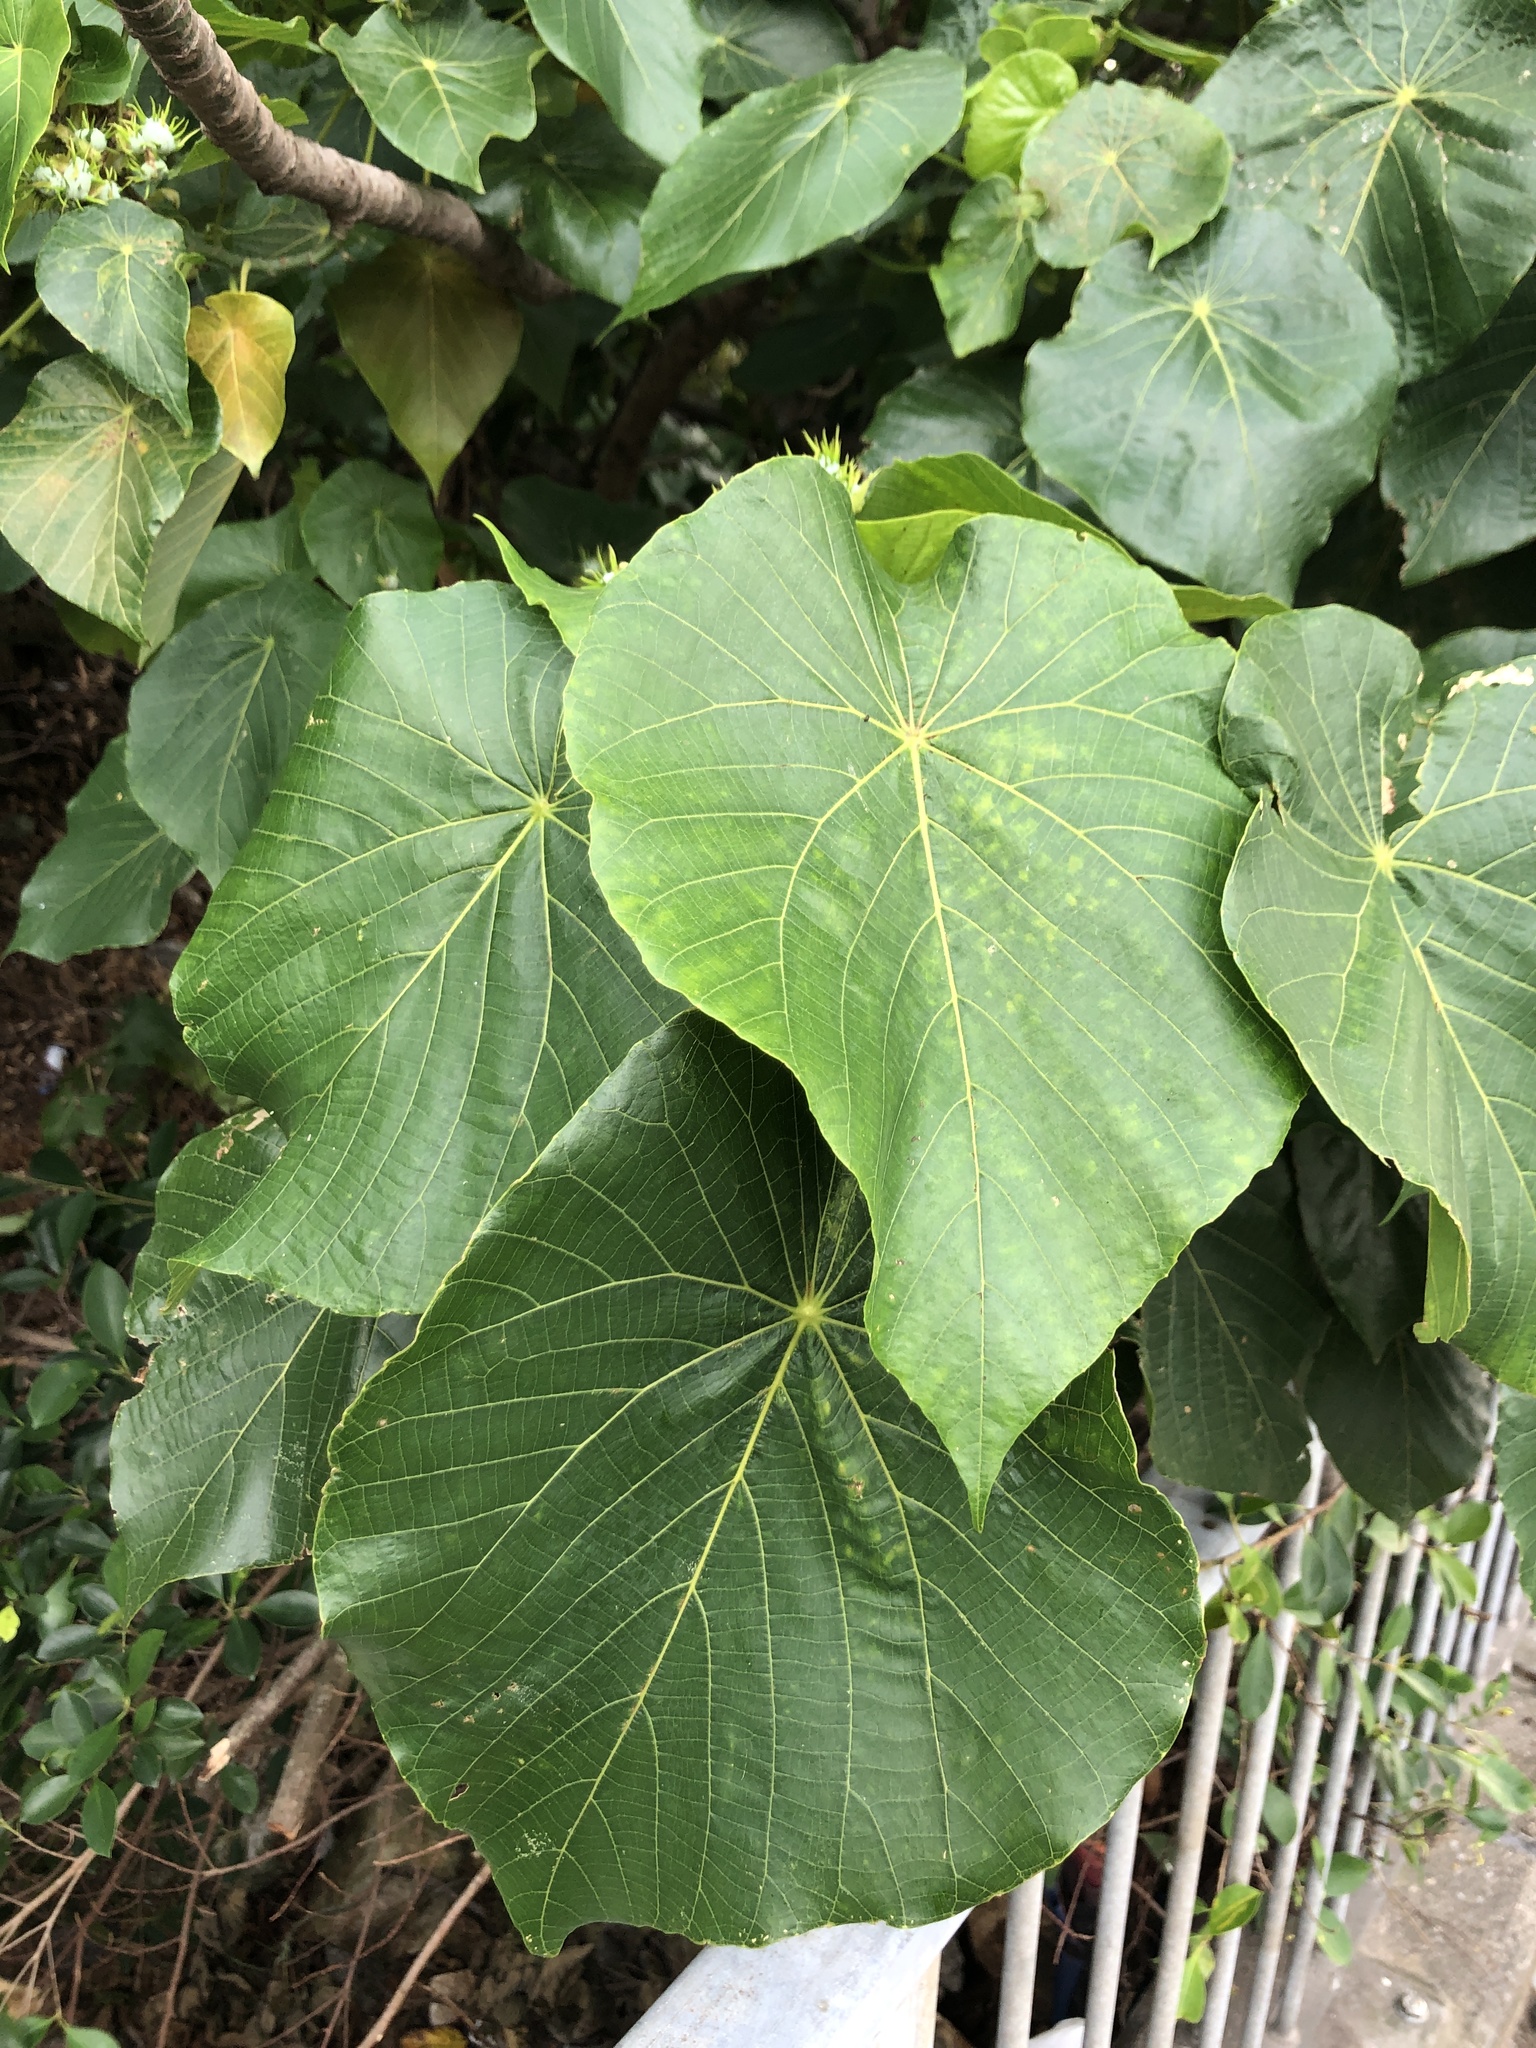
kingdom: Plantae
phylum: Tracheophyta
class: Magnoliopsida
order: Malpighiales
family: Euphorbiaceae
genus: Macaranga
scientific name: Macaranga tanarius
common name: Parasol leaf tree
